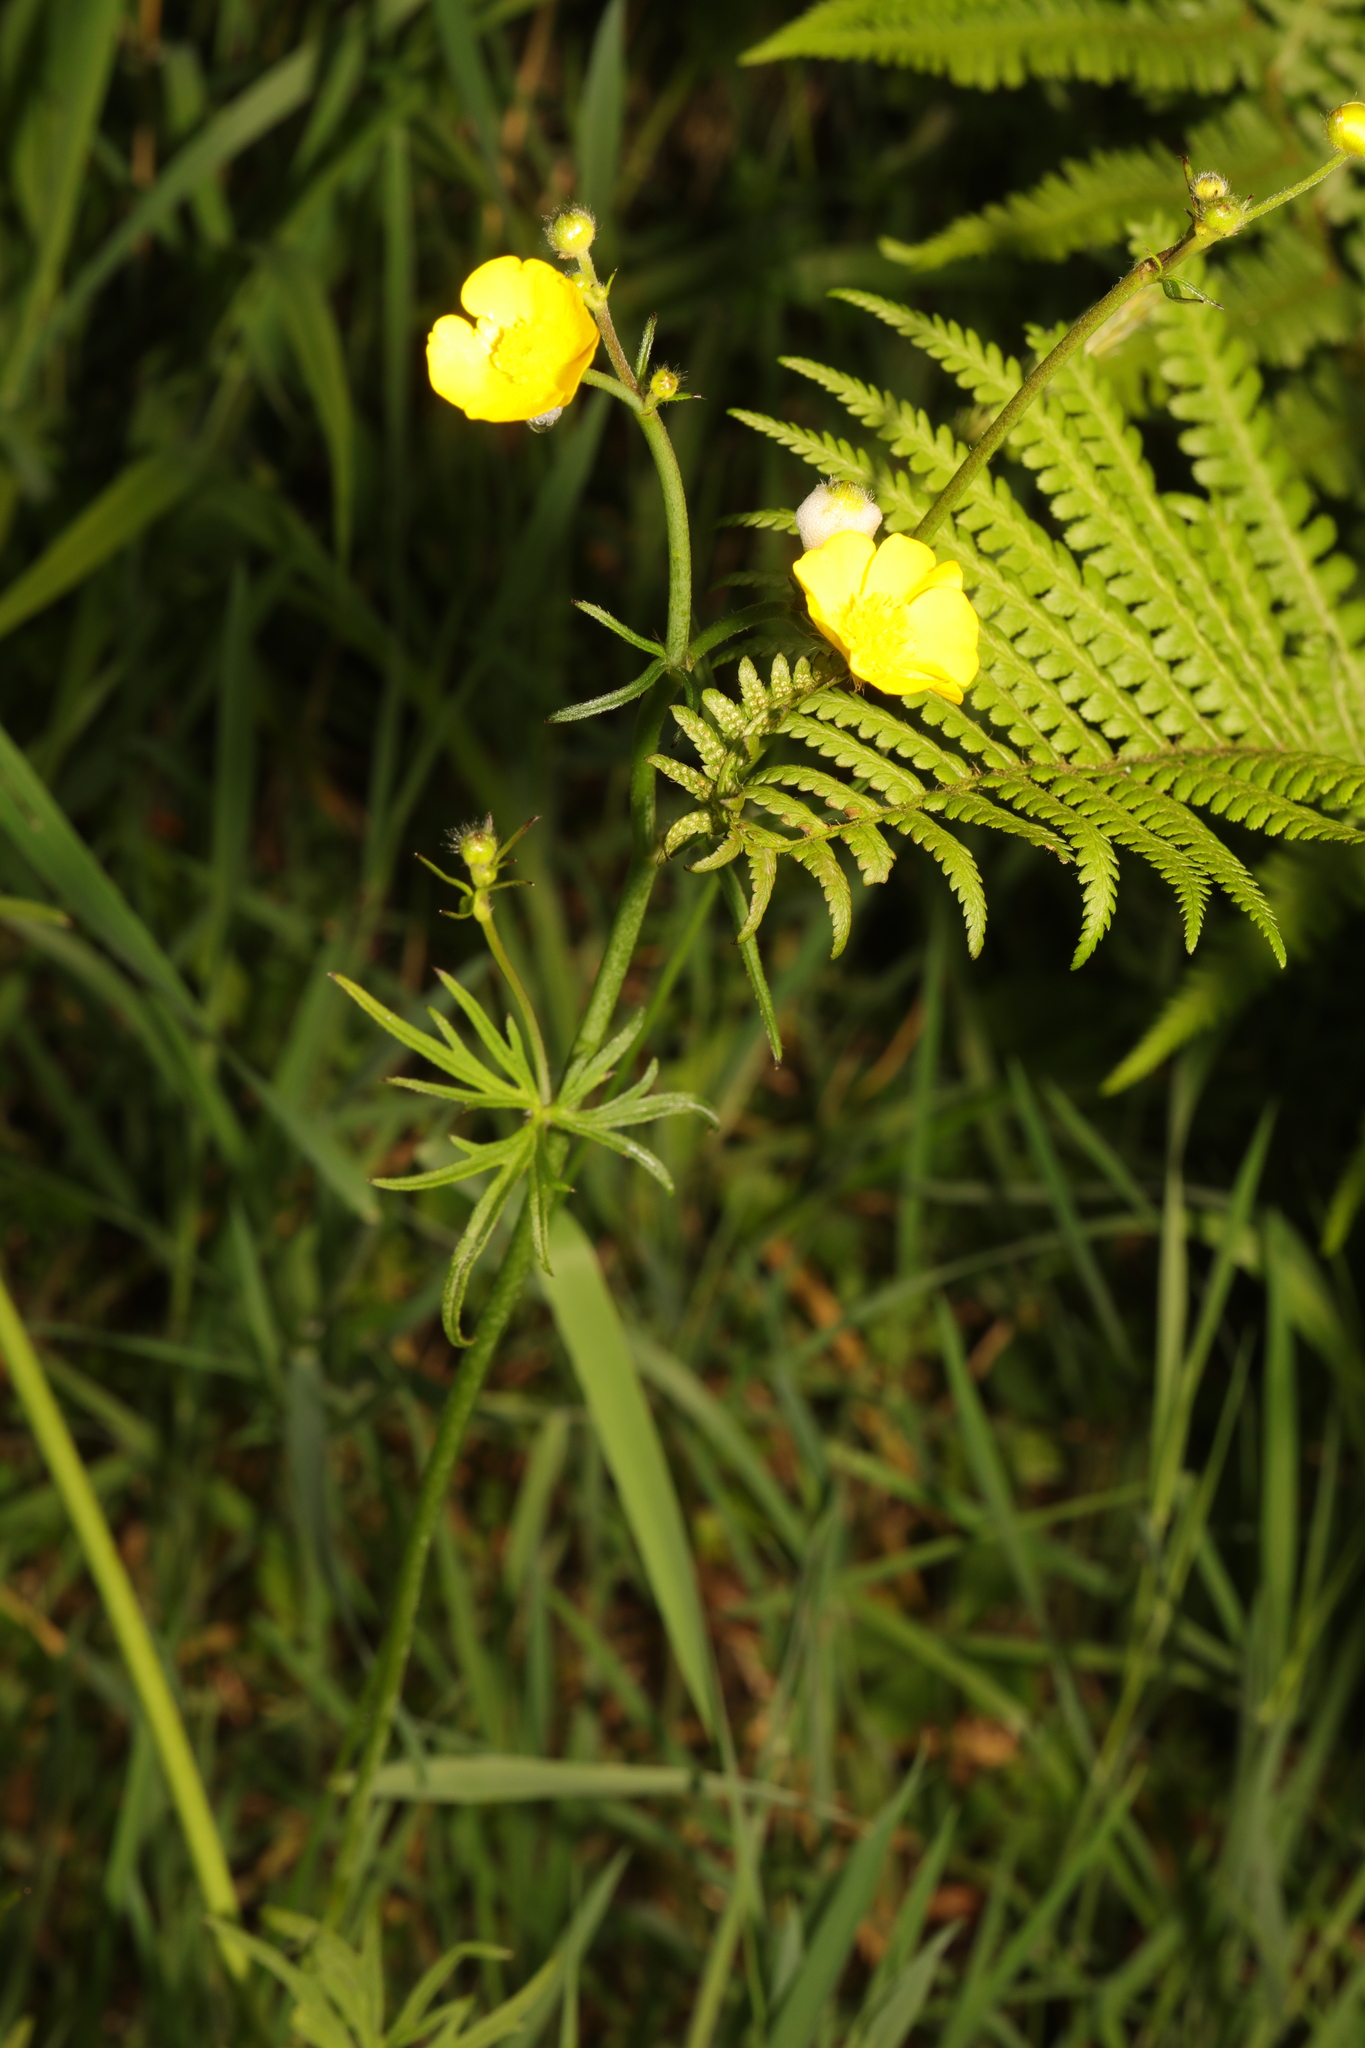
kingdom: Plantae
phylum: Tracheophyta
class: Magnoliopsida
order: Ranunculales
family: Ranunculaceae
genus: Ranunculus
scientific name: Ranunculus acris
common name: Meadow buttercup
